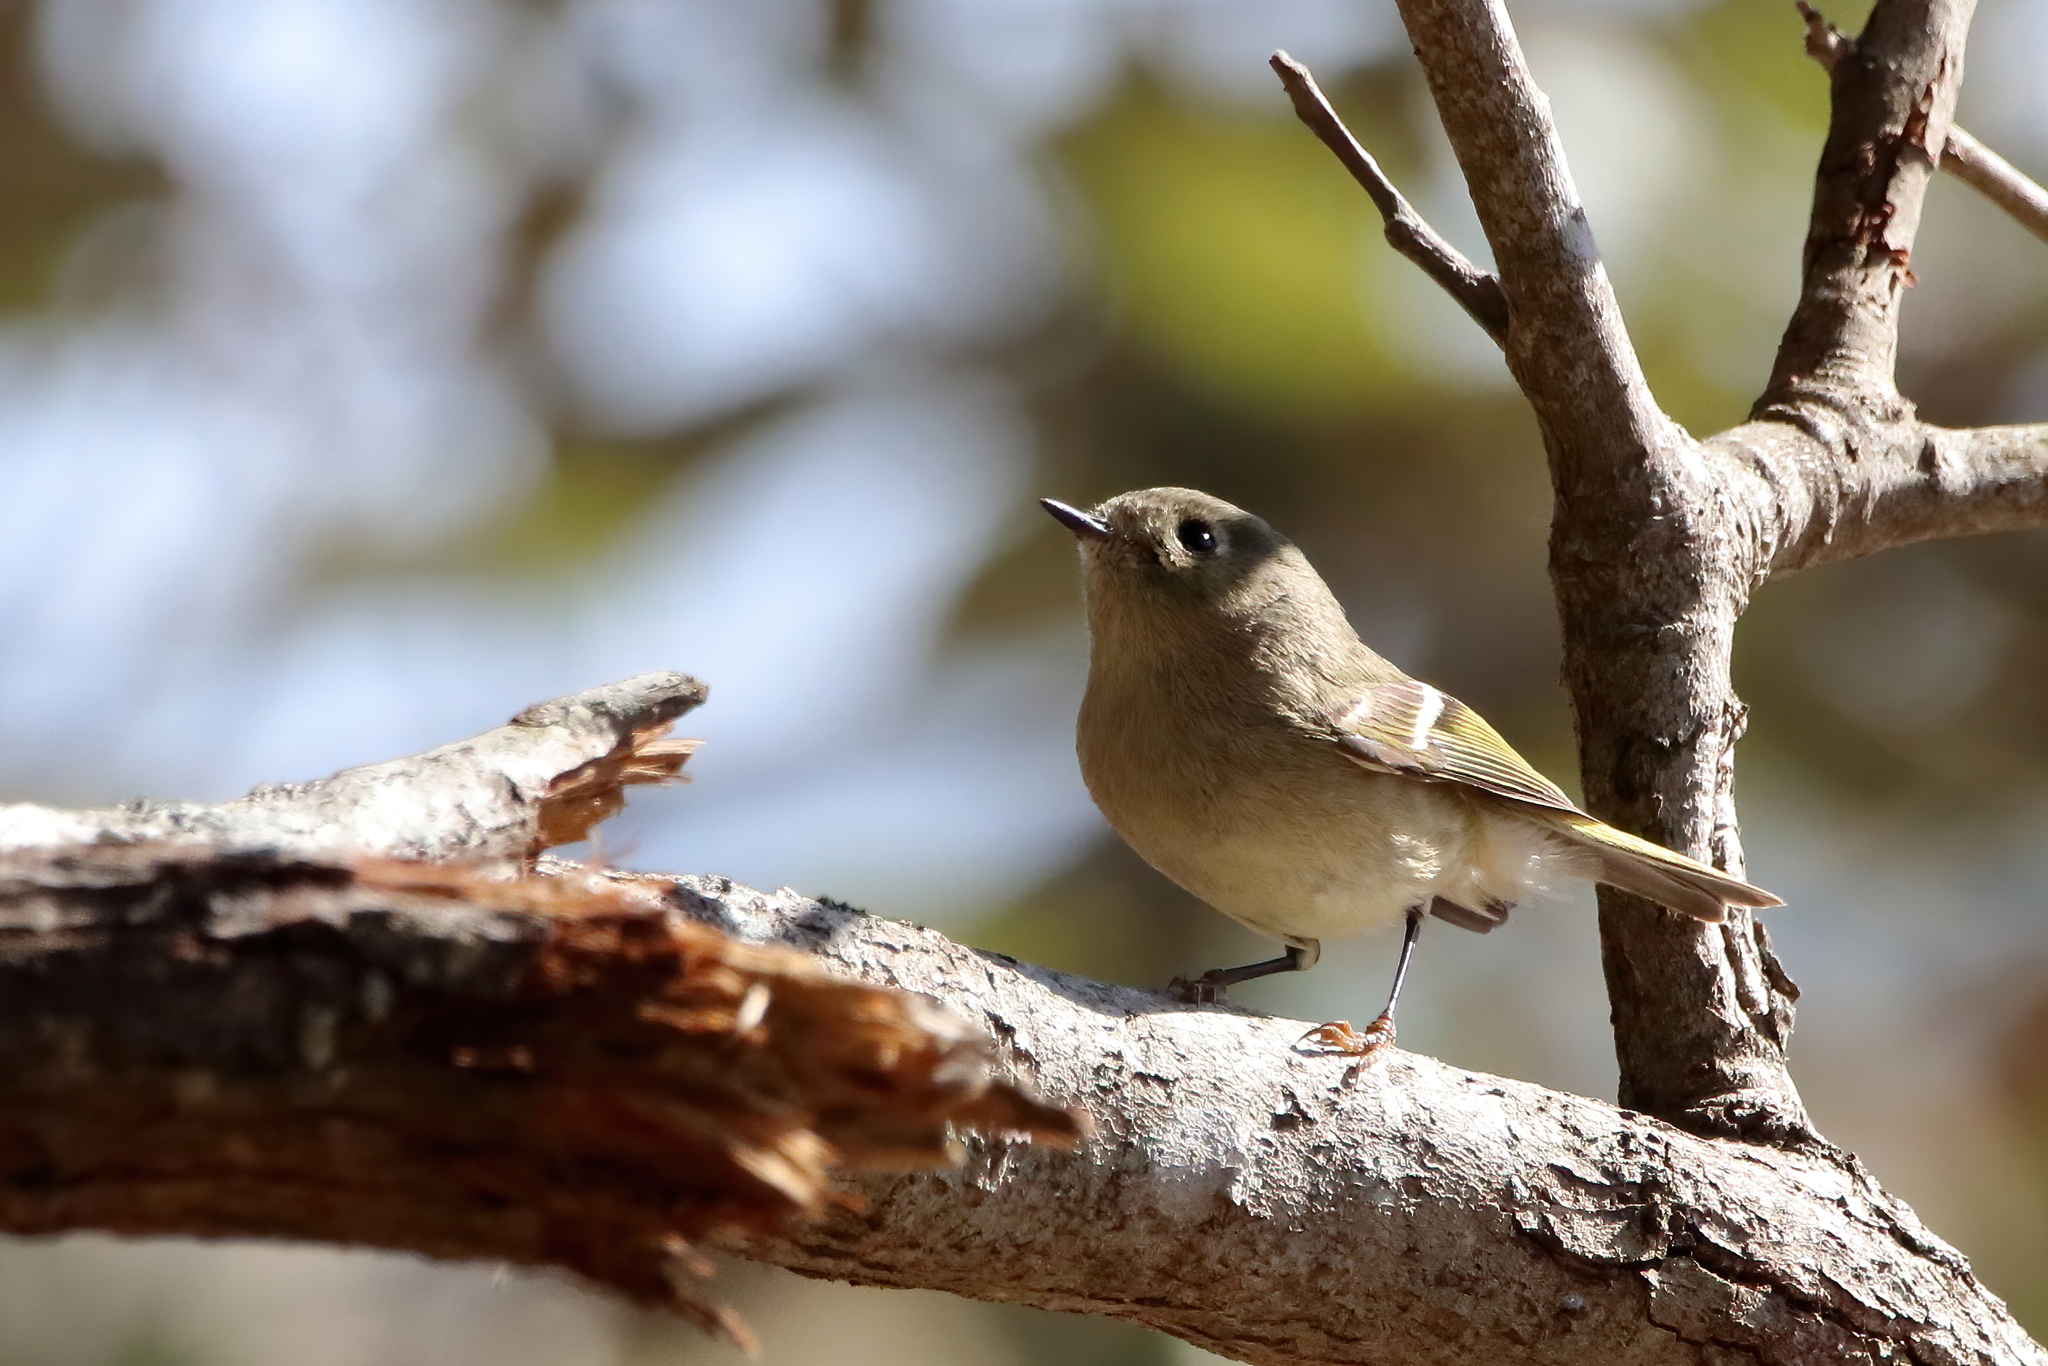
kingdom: Animalia
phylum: Chordata
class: Aves
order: Passeriformes
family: Regulidae
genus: Regulus
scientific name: Regulus calendula
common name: Ruby-crowned kinglet
